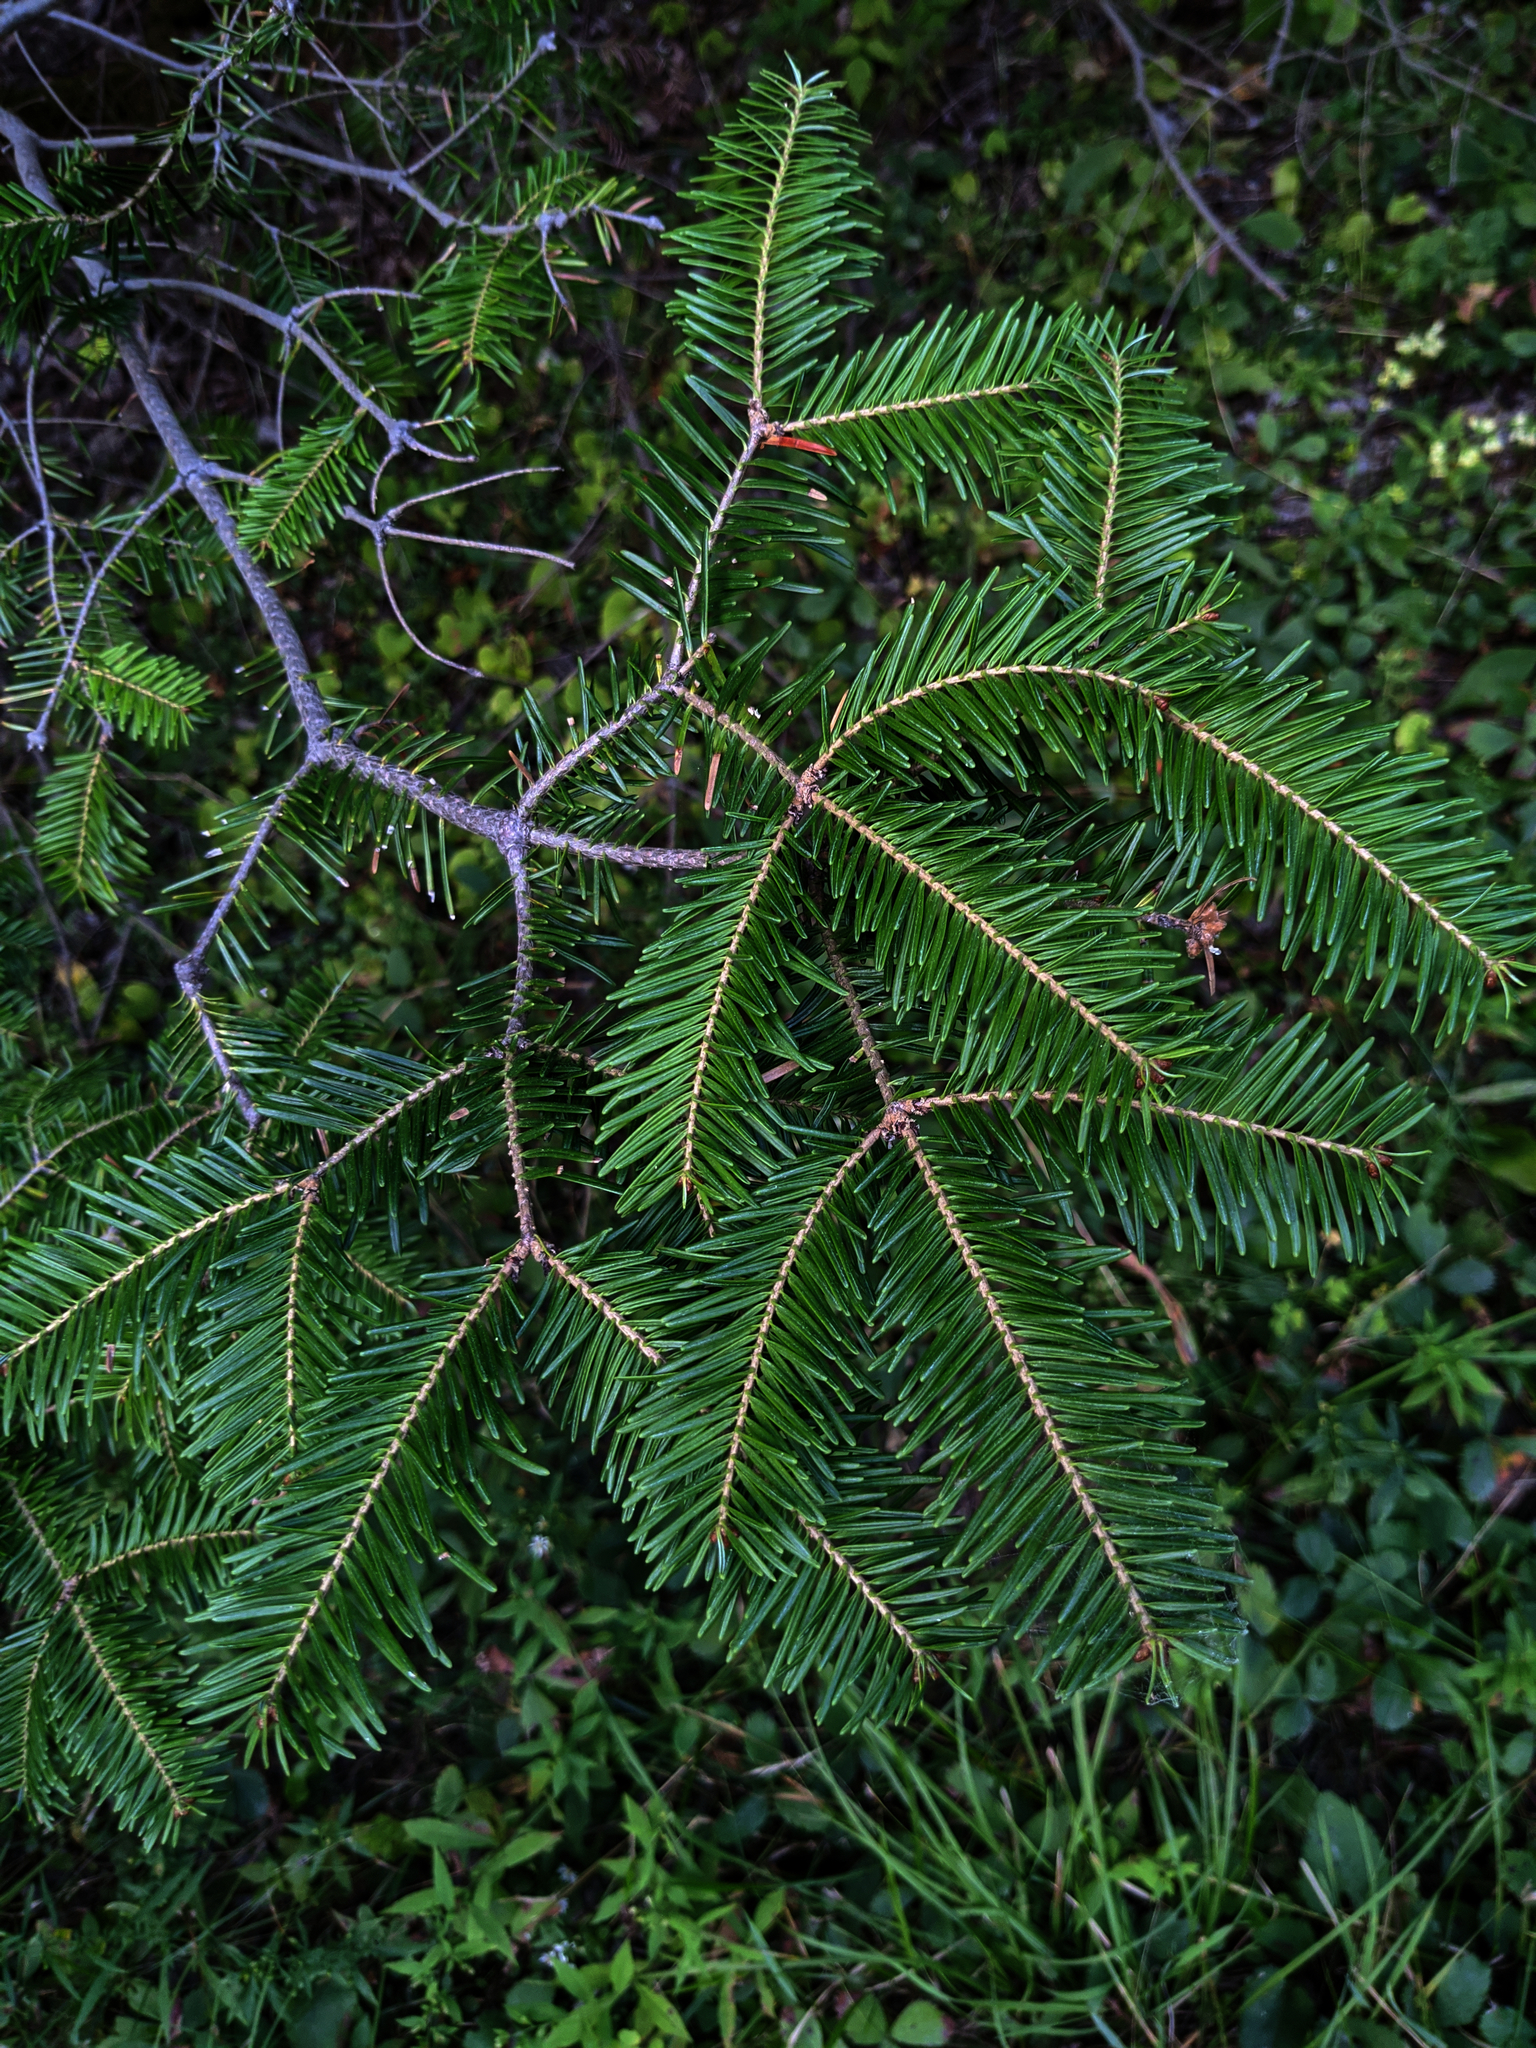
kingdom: Plantae
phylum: Tracheophyta
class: Pinopsida
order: Pinales
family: Pinaceae
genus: Abies
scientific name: Abies balsamea
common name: Balsam fir
